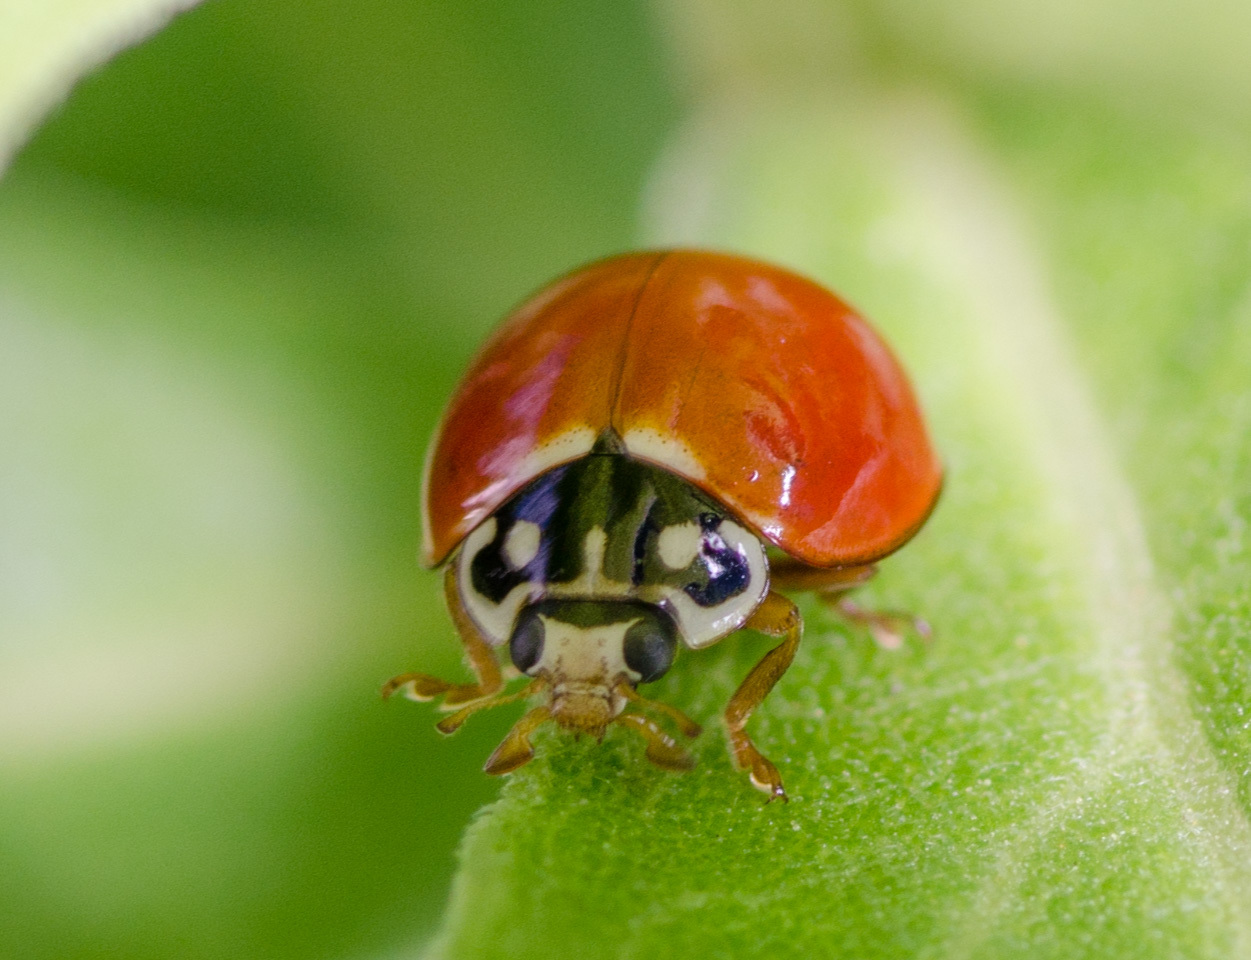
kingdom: Animalia
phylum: Arthropoda
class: Insecta
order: Coleoptera
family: Coccinellidae
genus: Cycloneda
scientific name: Cycloneda sanguinea
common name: Ladybird beetle
